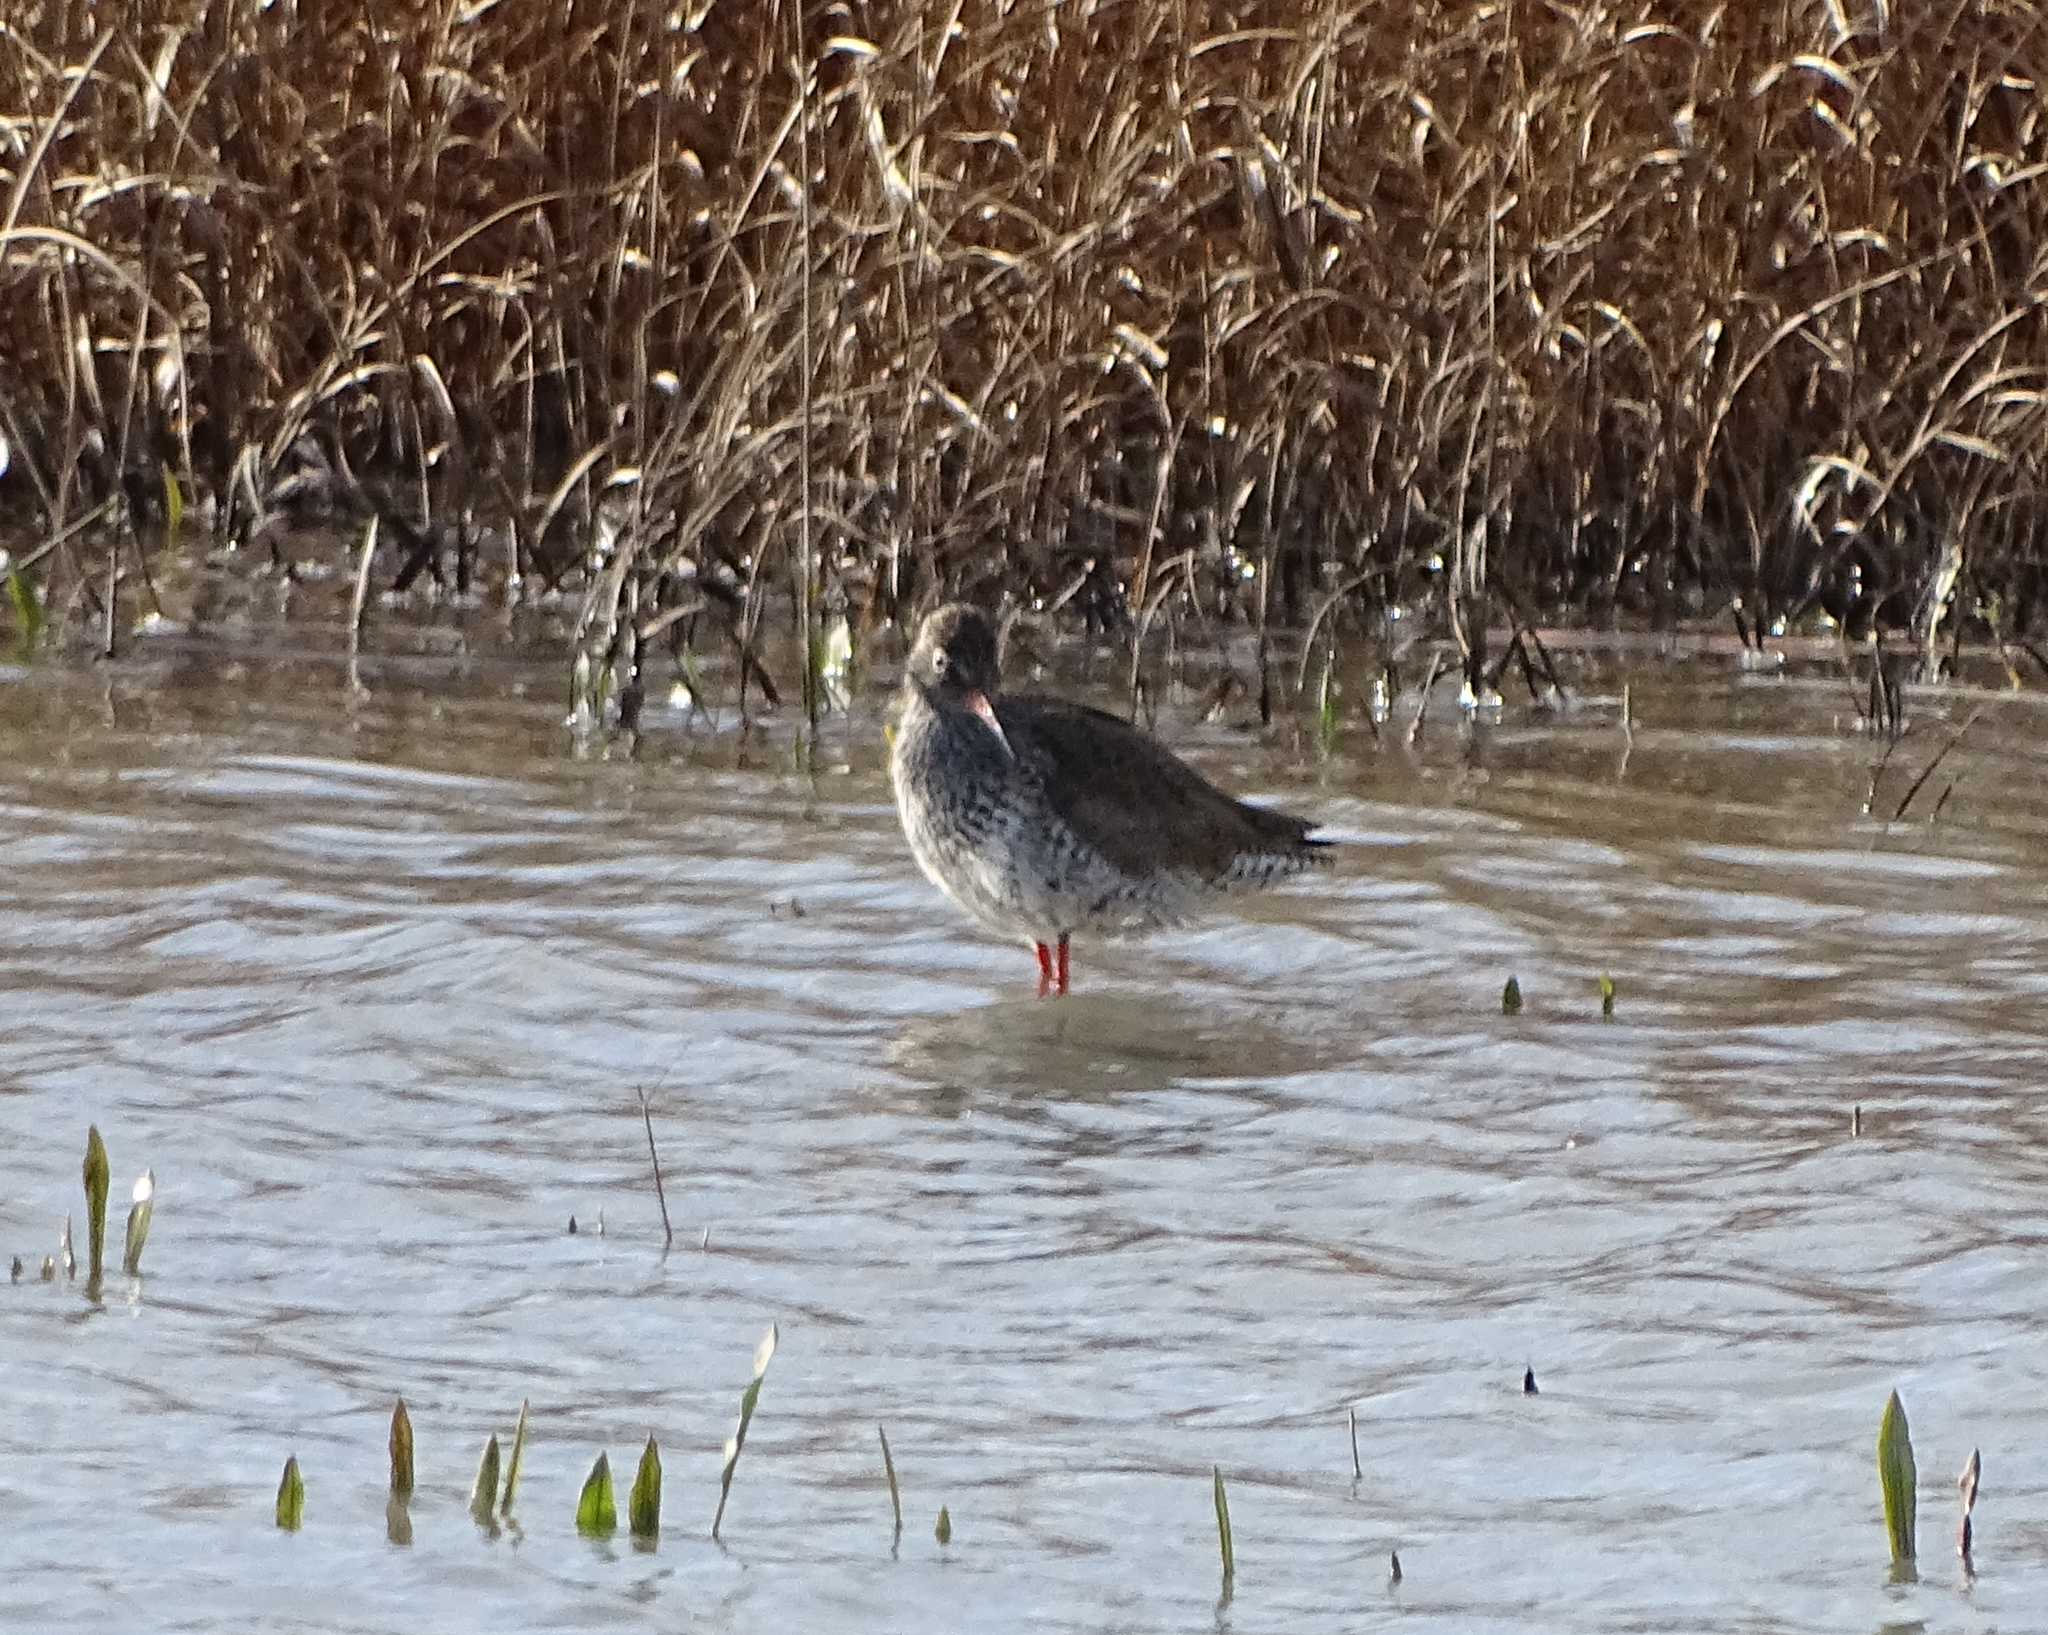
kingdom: Animalia
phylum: Chordata
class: Aves
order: Charadriiformes
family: Scolopacidae
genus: Tringa
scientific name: Tringa totanus
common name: Common redshank
